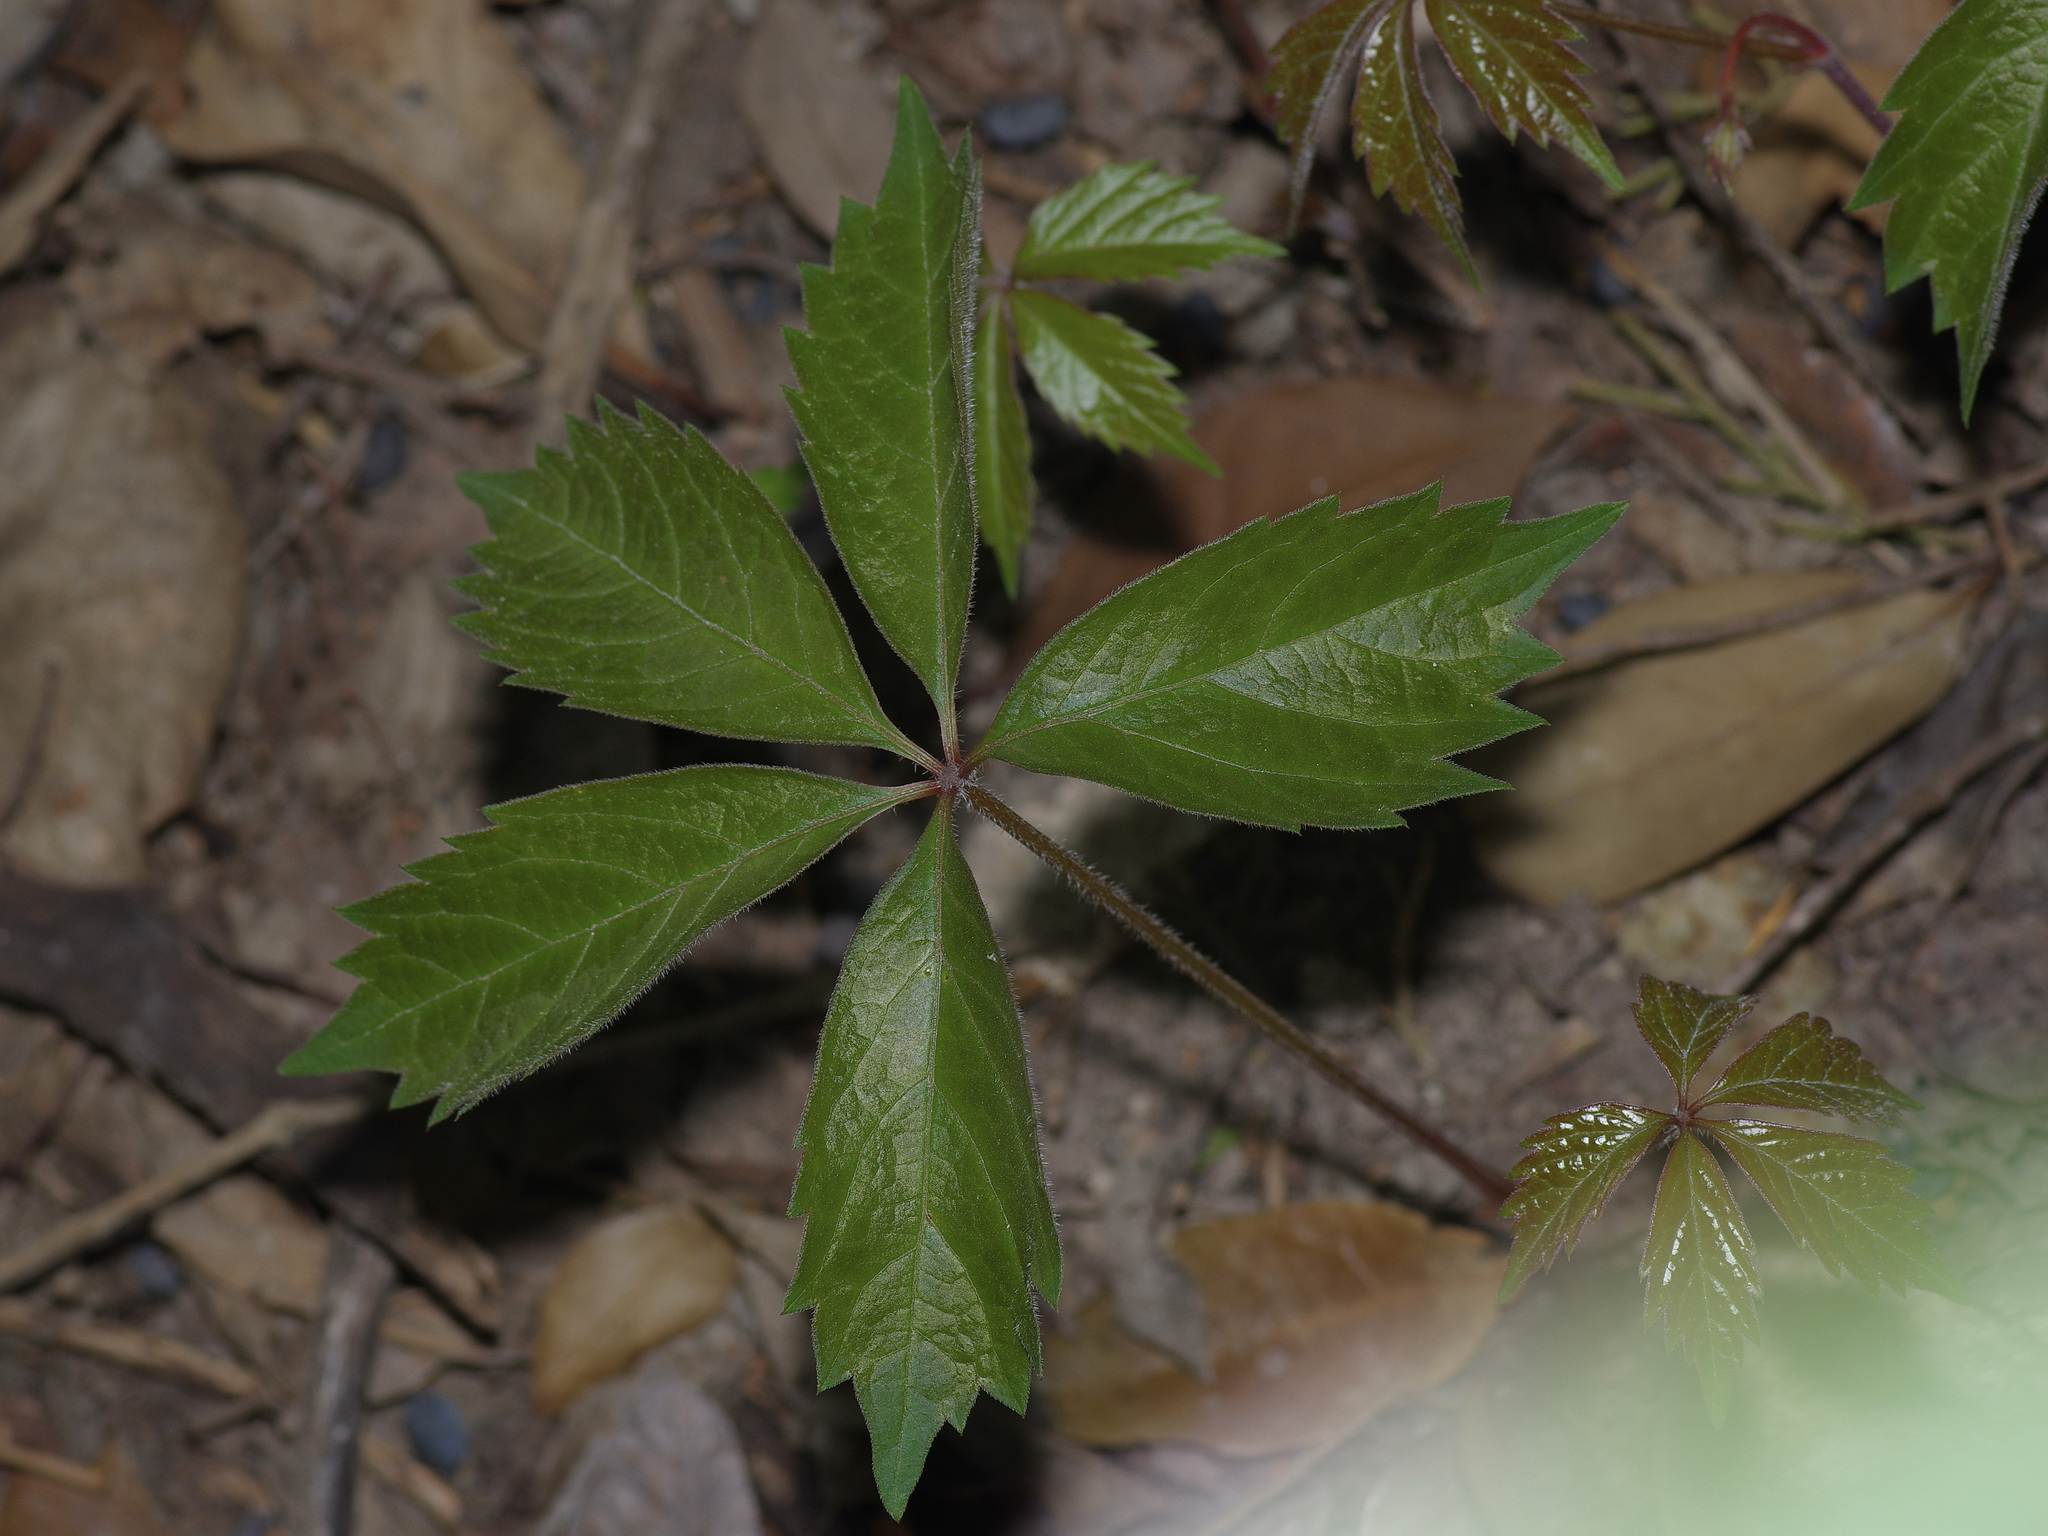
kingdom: Plantae
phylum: Tracheophyta
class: Magnoliopsida
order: Vitales
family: Vitaceae
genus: Parthenocissus
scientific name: Parthenocissus quinquefolia
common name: Virginia-creeper
